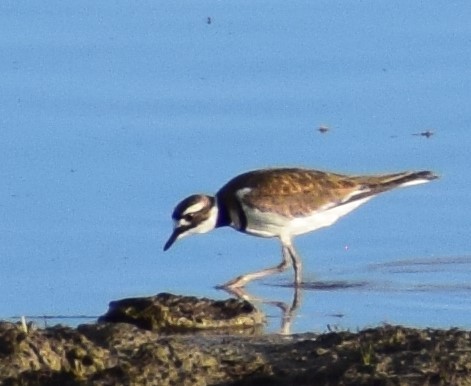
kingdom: Animalia
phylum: Chordata
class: Aves
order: Charadriiformes
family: Charadriidae
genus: Charadrius
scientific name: Charadrius vociferus
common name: Killdeer
